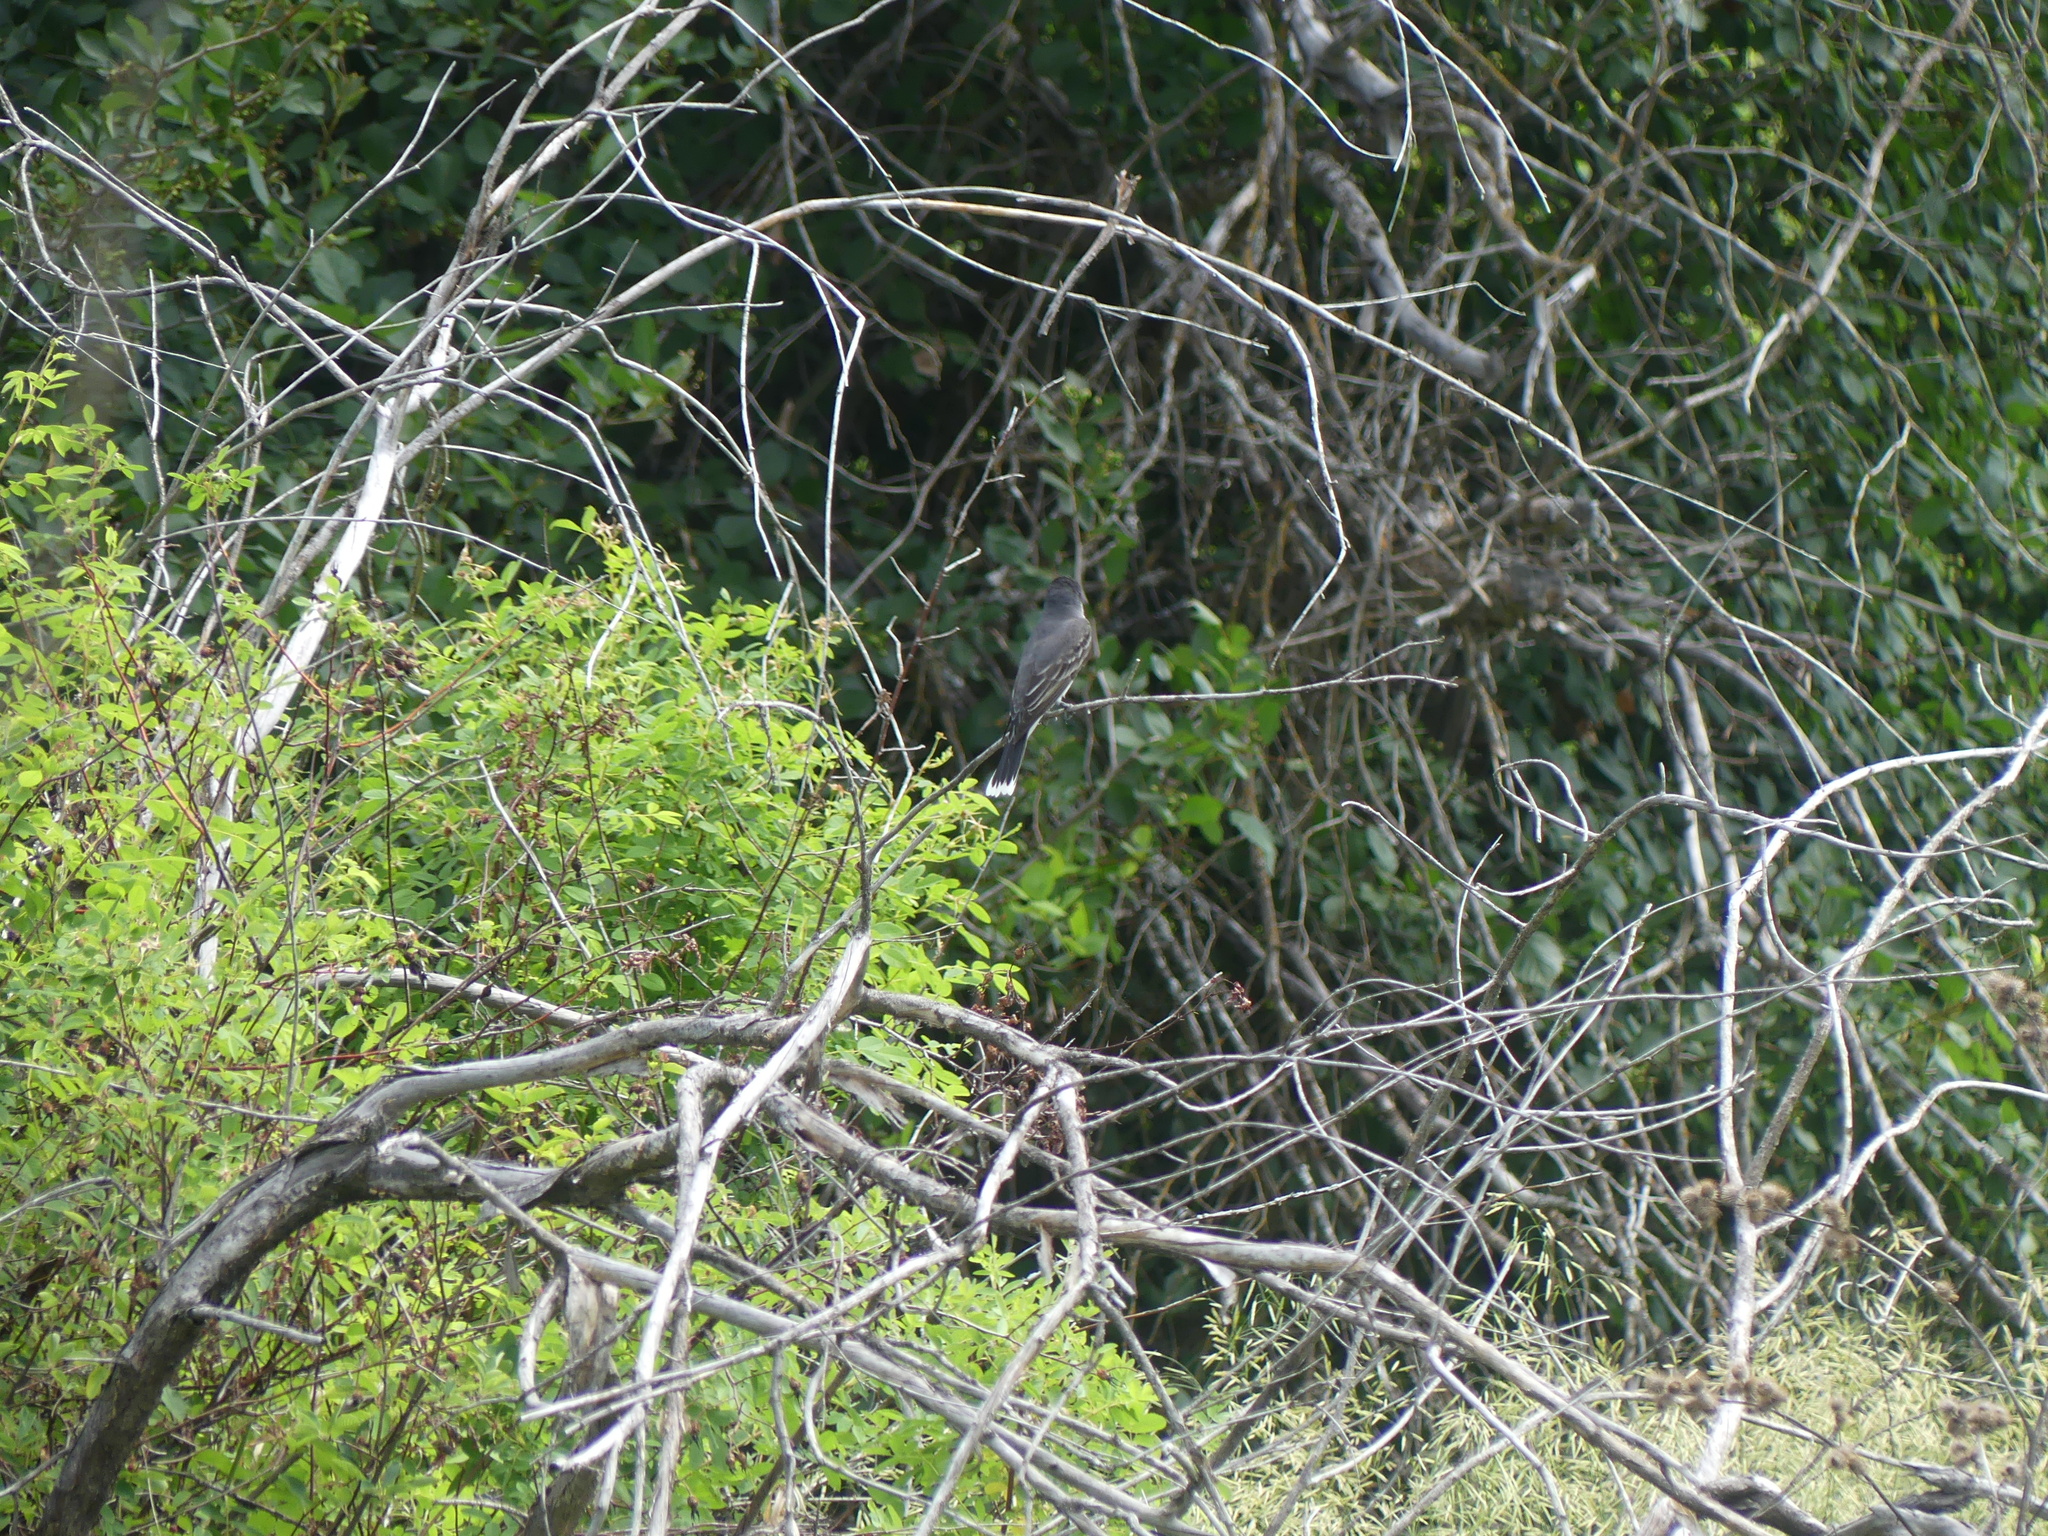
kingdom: Animalia
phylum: Chordata
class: Aves
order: Passeriformes
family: Tyrannidae
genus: Tyrannus
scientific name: Tyrannus tyrannus
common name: Eastern kingbird
